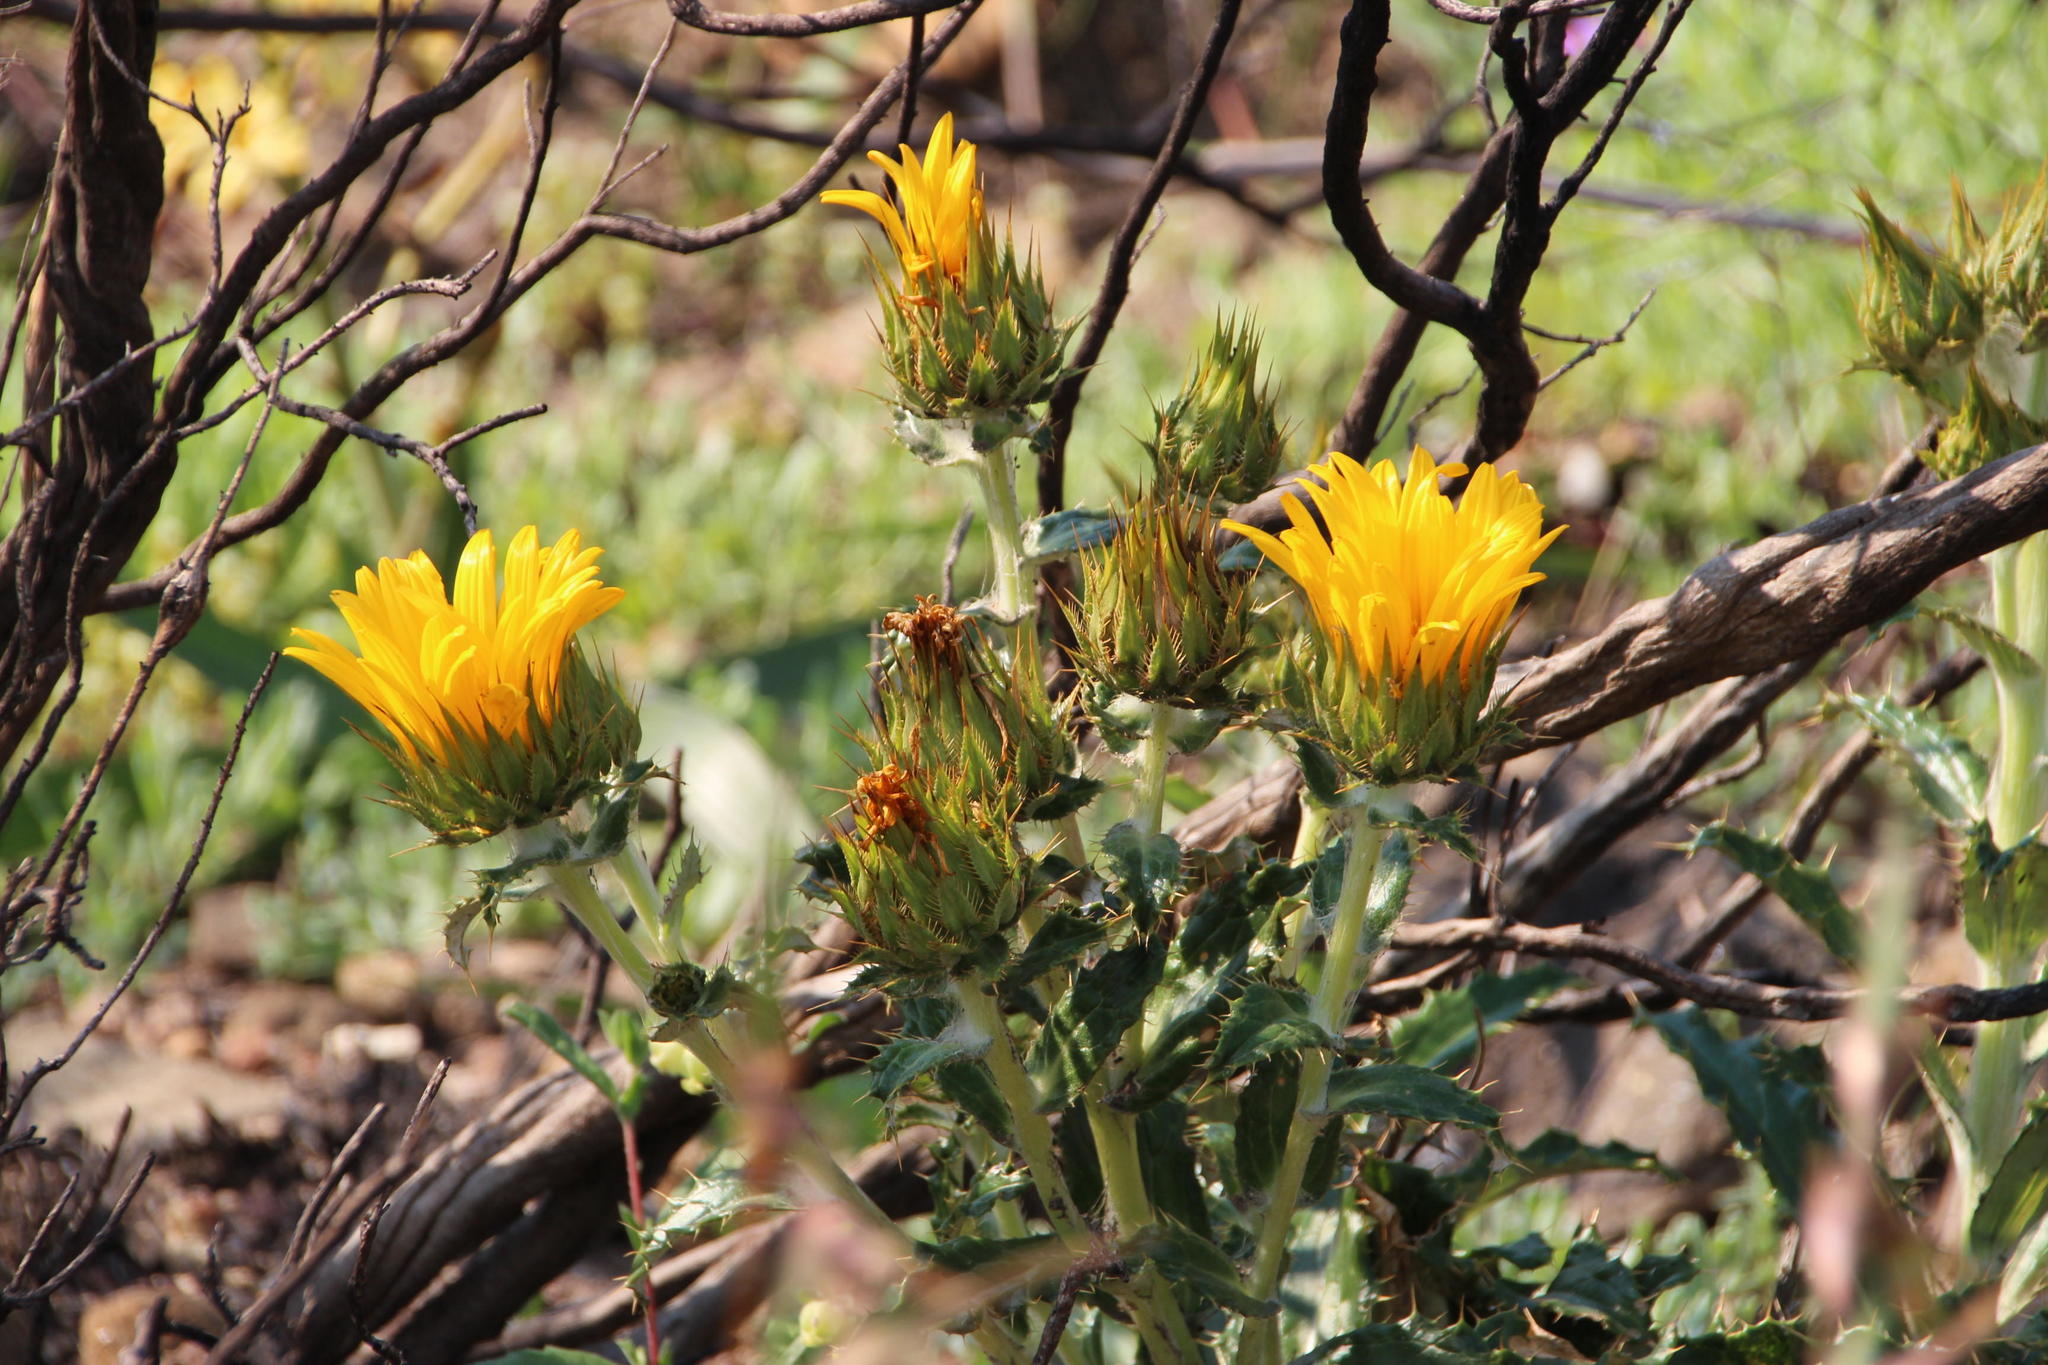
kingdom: Plantae
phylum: Tracheophyta
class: Magnoliopsida
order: Asterales
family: Asteraceae
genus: Berkheya
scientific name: Berkheya armata
